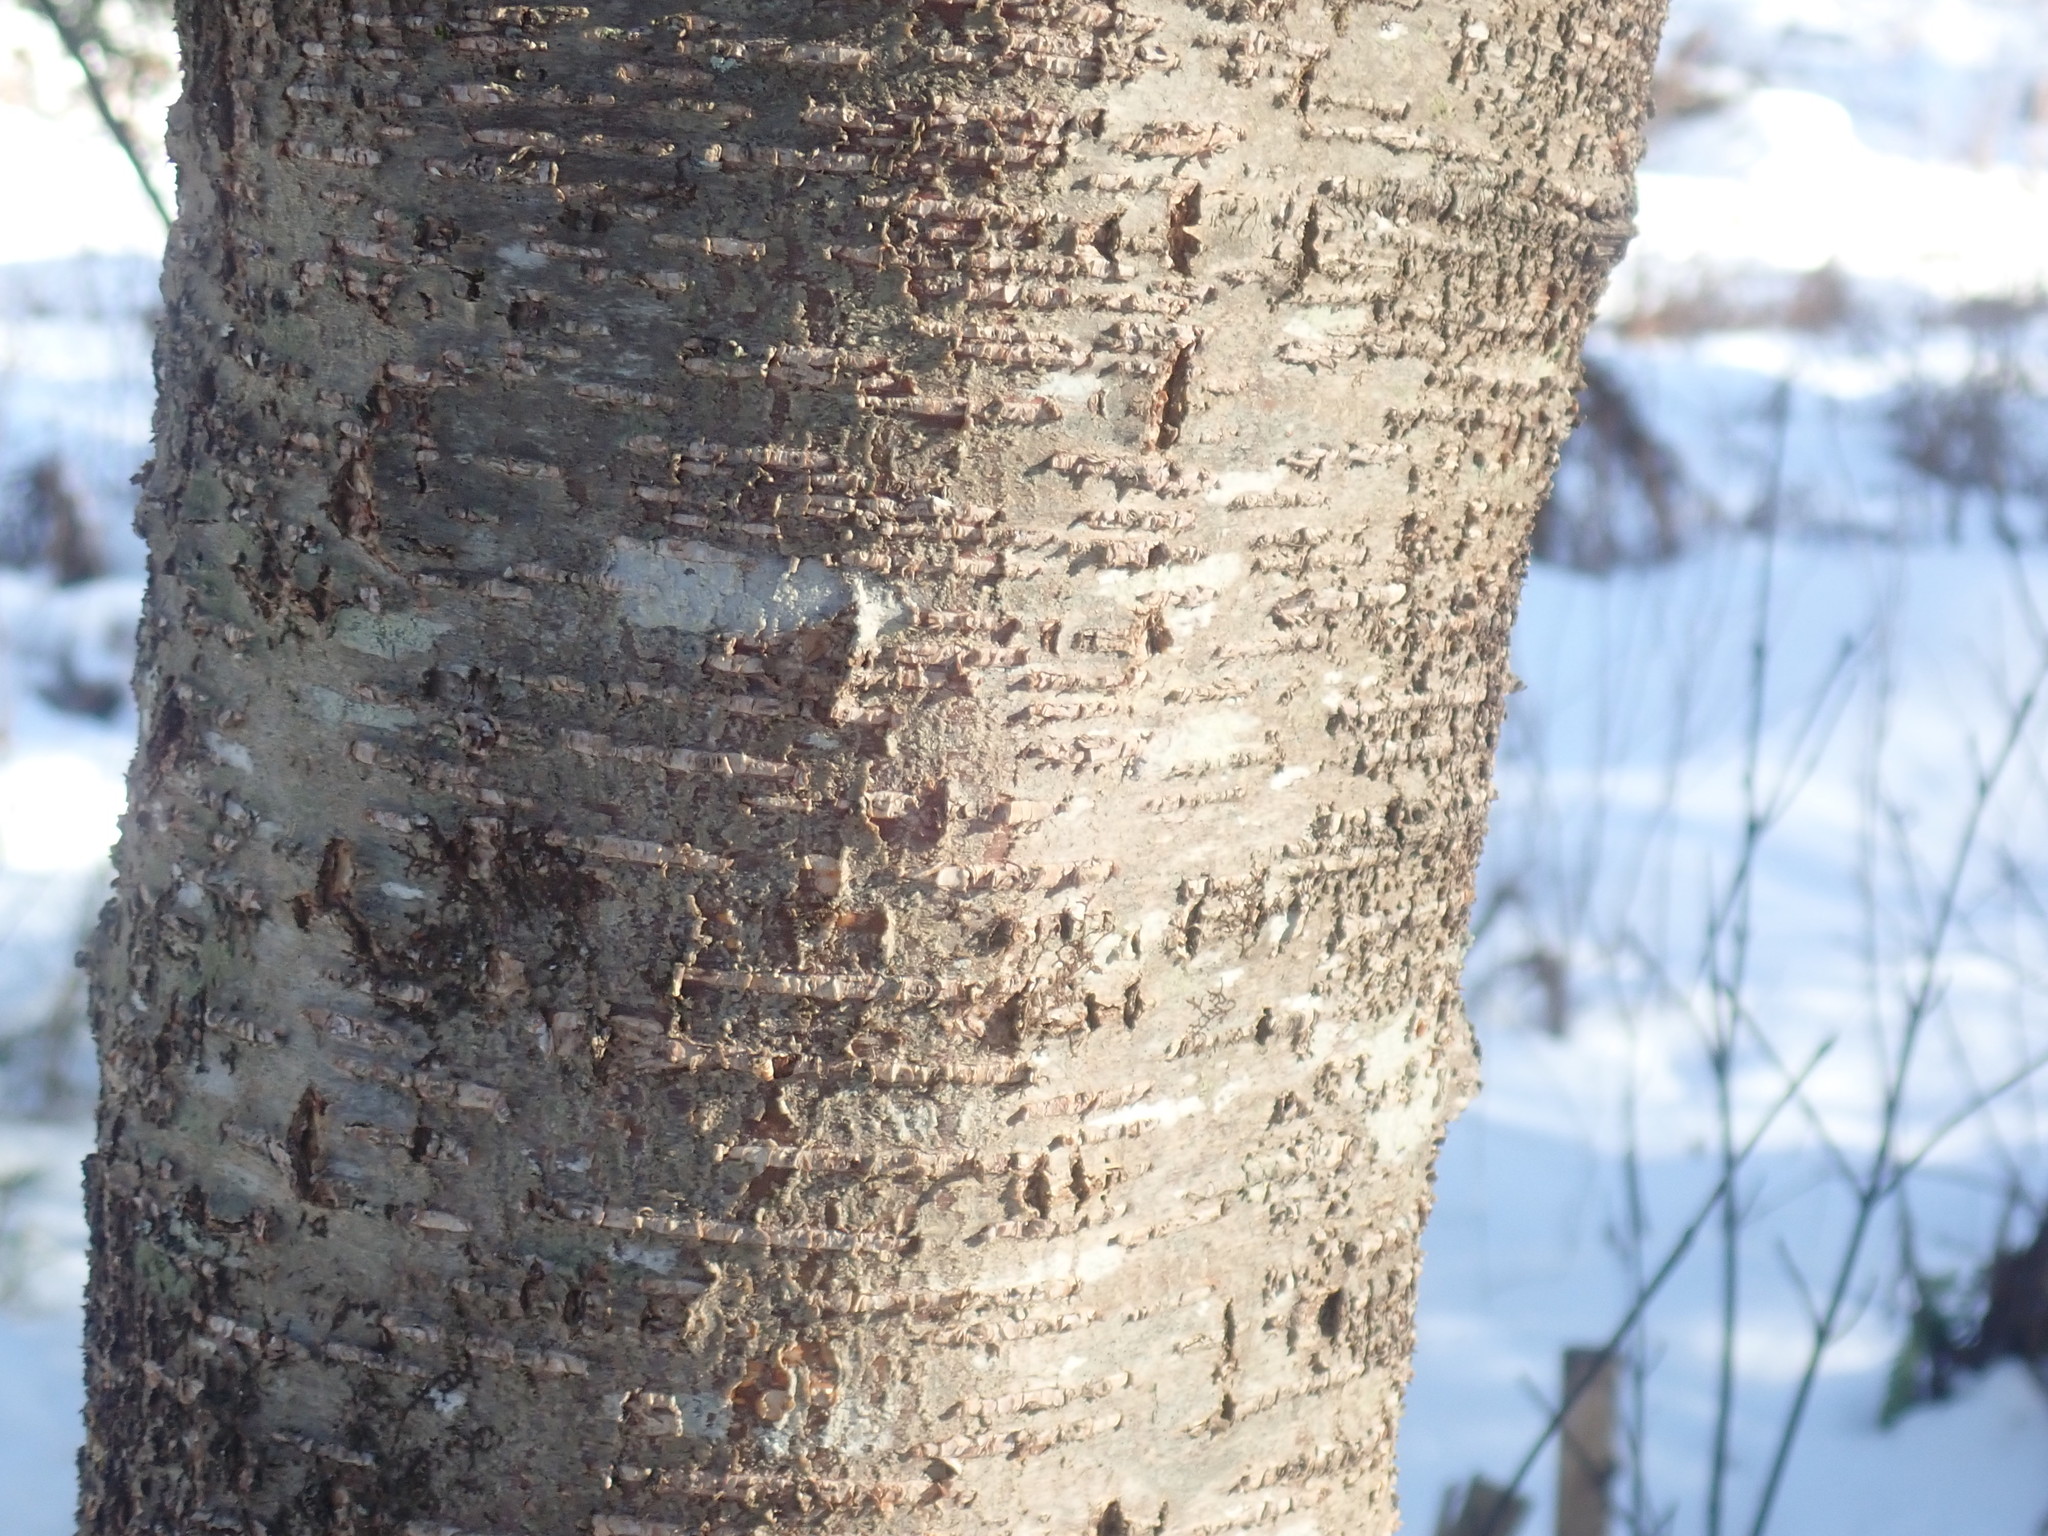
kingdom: Plantae
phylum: Tracheophyta
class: Magnoliopsida
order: Fagales
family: Betulaceae
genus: Betula
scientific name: Betula lenta
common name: Black birch
